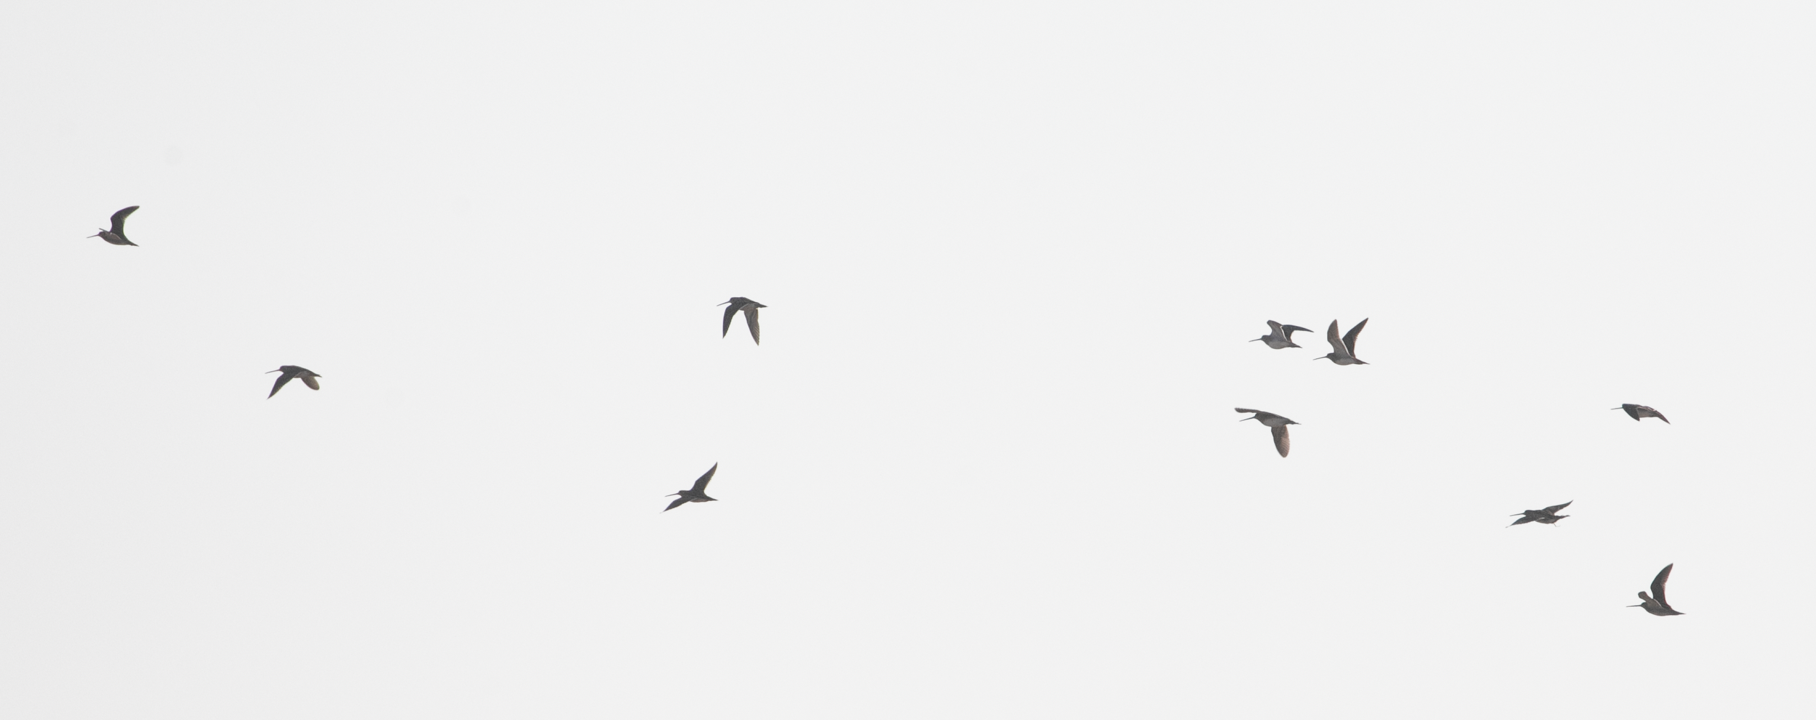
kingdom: Animalia
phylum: Chordata
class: Aves
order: Charadriiformes
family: Scolopacidae
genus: Gallinago
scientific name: Gallinago gallinago
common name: Common snipe
